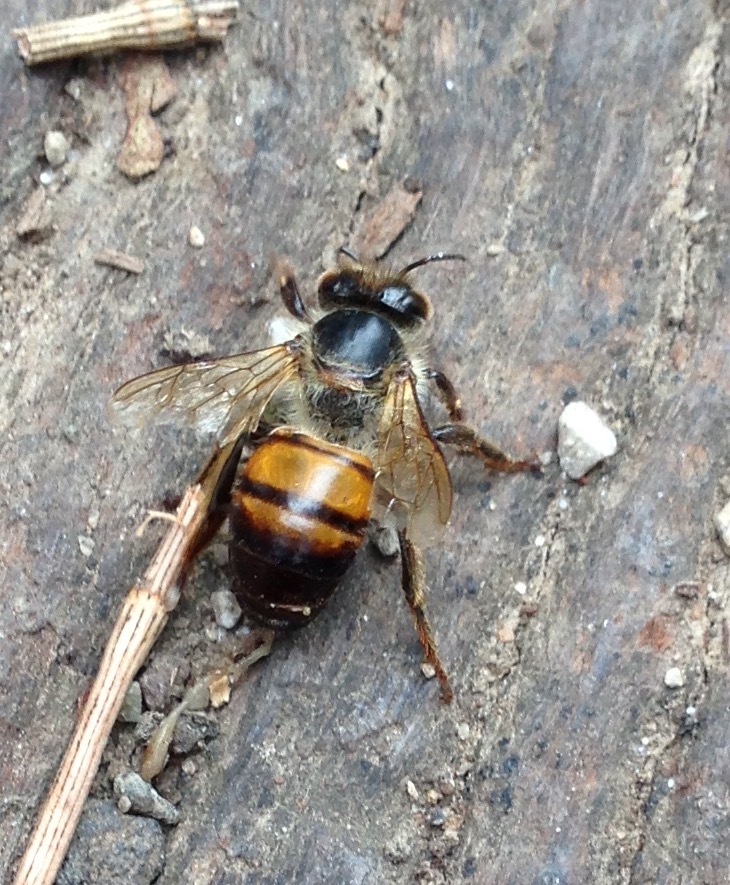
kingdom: Animalia
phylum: Arthropoda
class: Insecta
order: Hymenoptera
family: Apidae
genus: Apis
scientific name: Apis mellifera
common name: Honey bee
